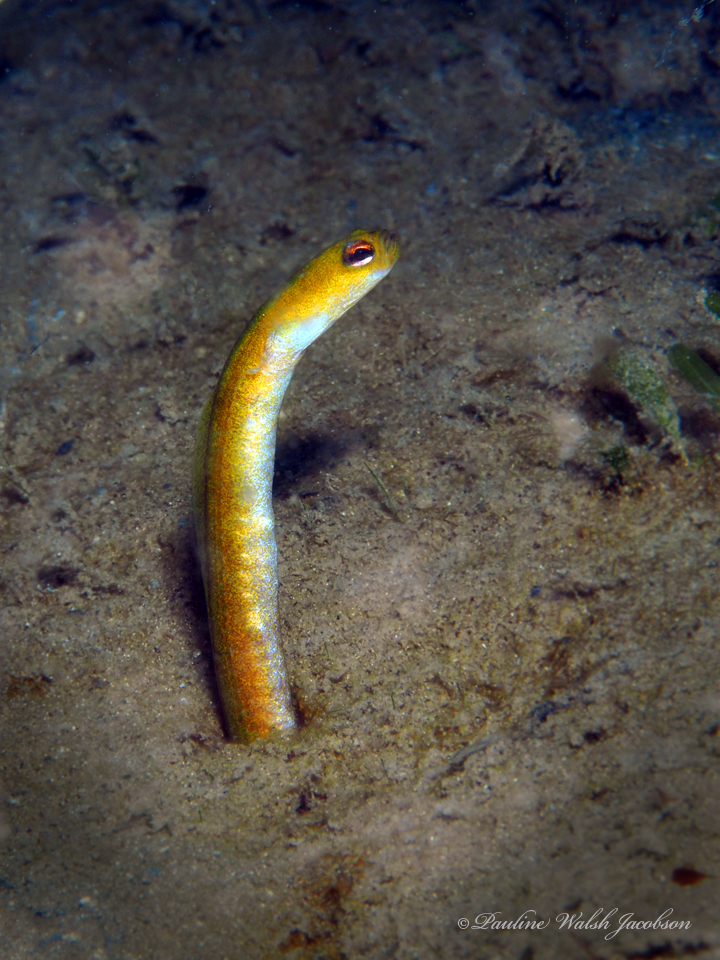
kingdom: Animalia
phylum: Chordata
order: Anguilliformes
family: Congridae
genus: Heteroconger
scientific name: Heteroconger luteolus
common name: Yellow garden eel
